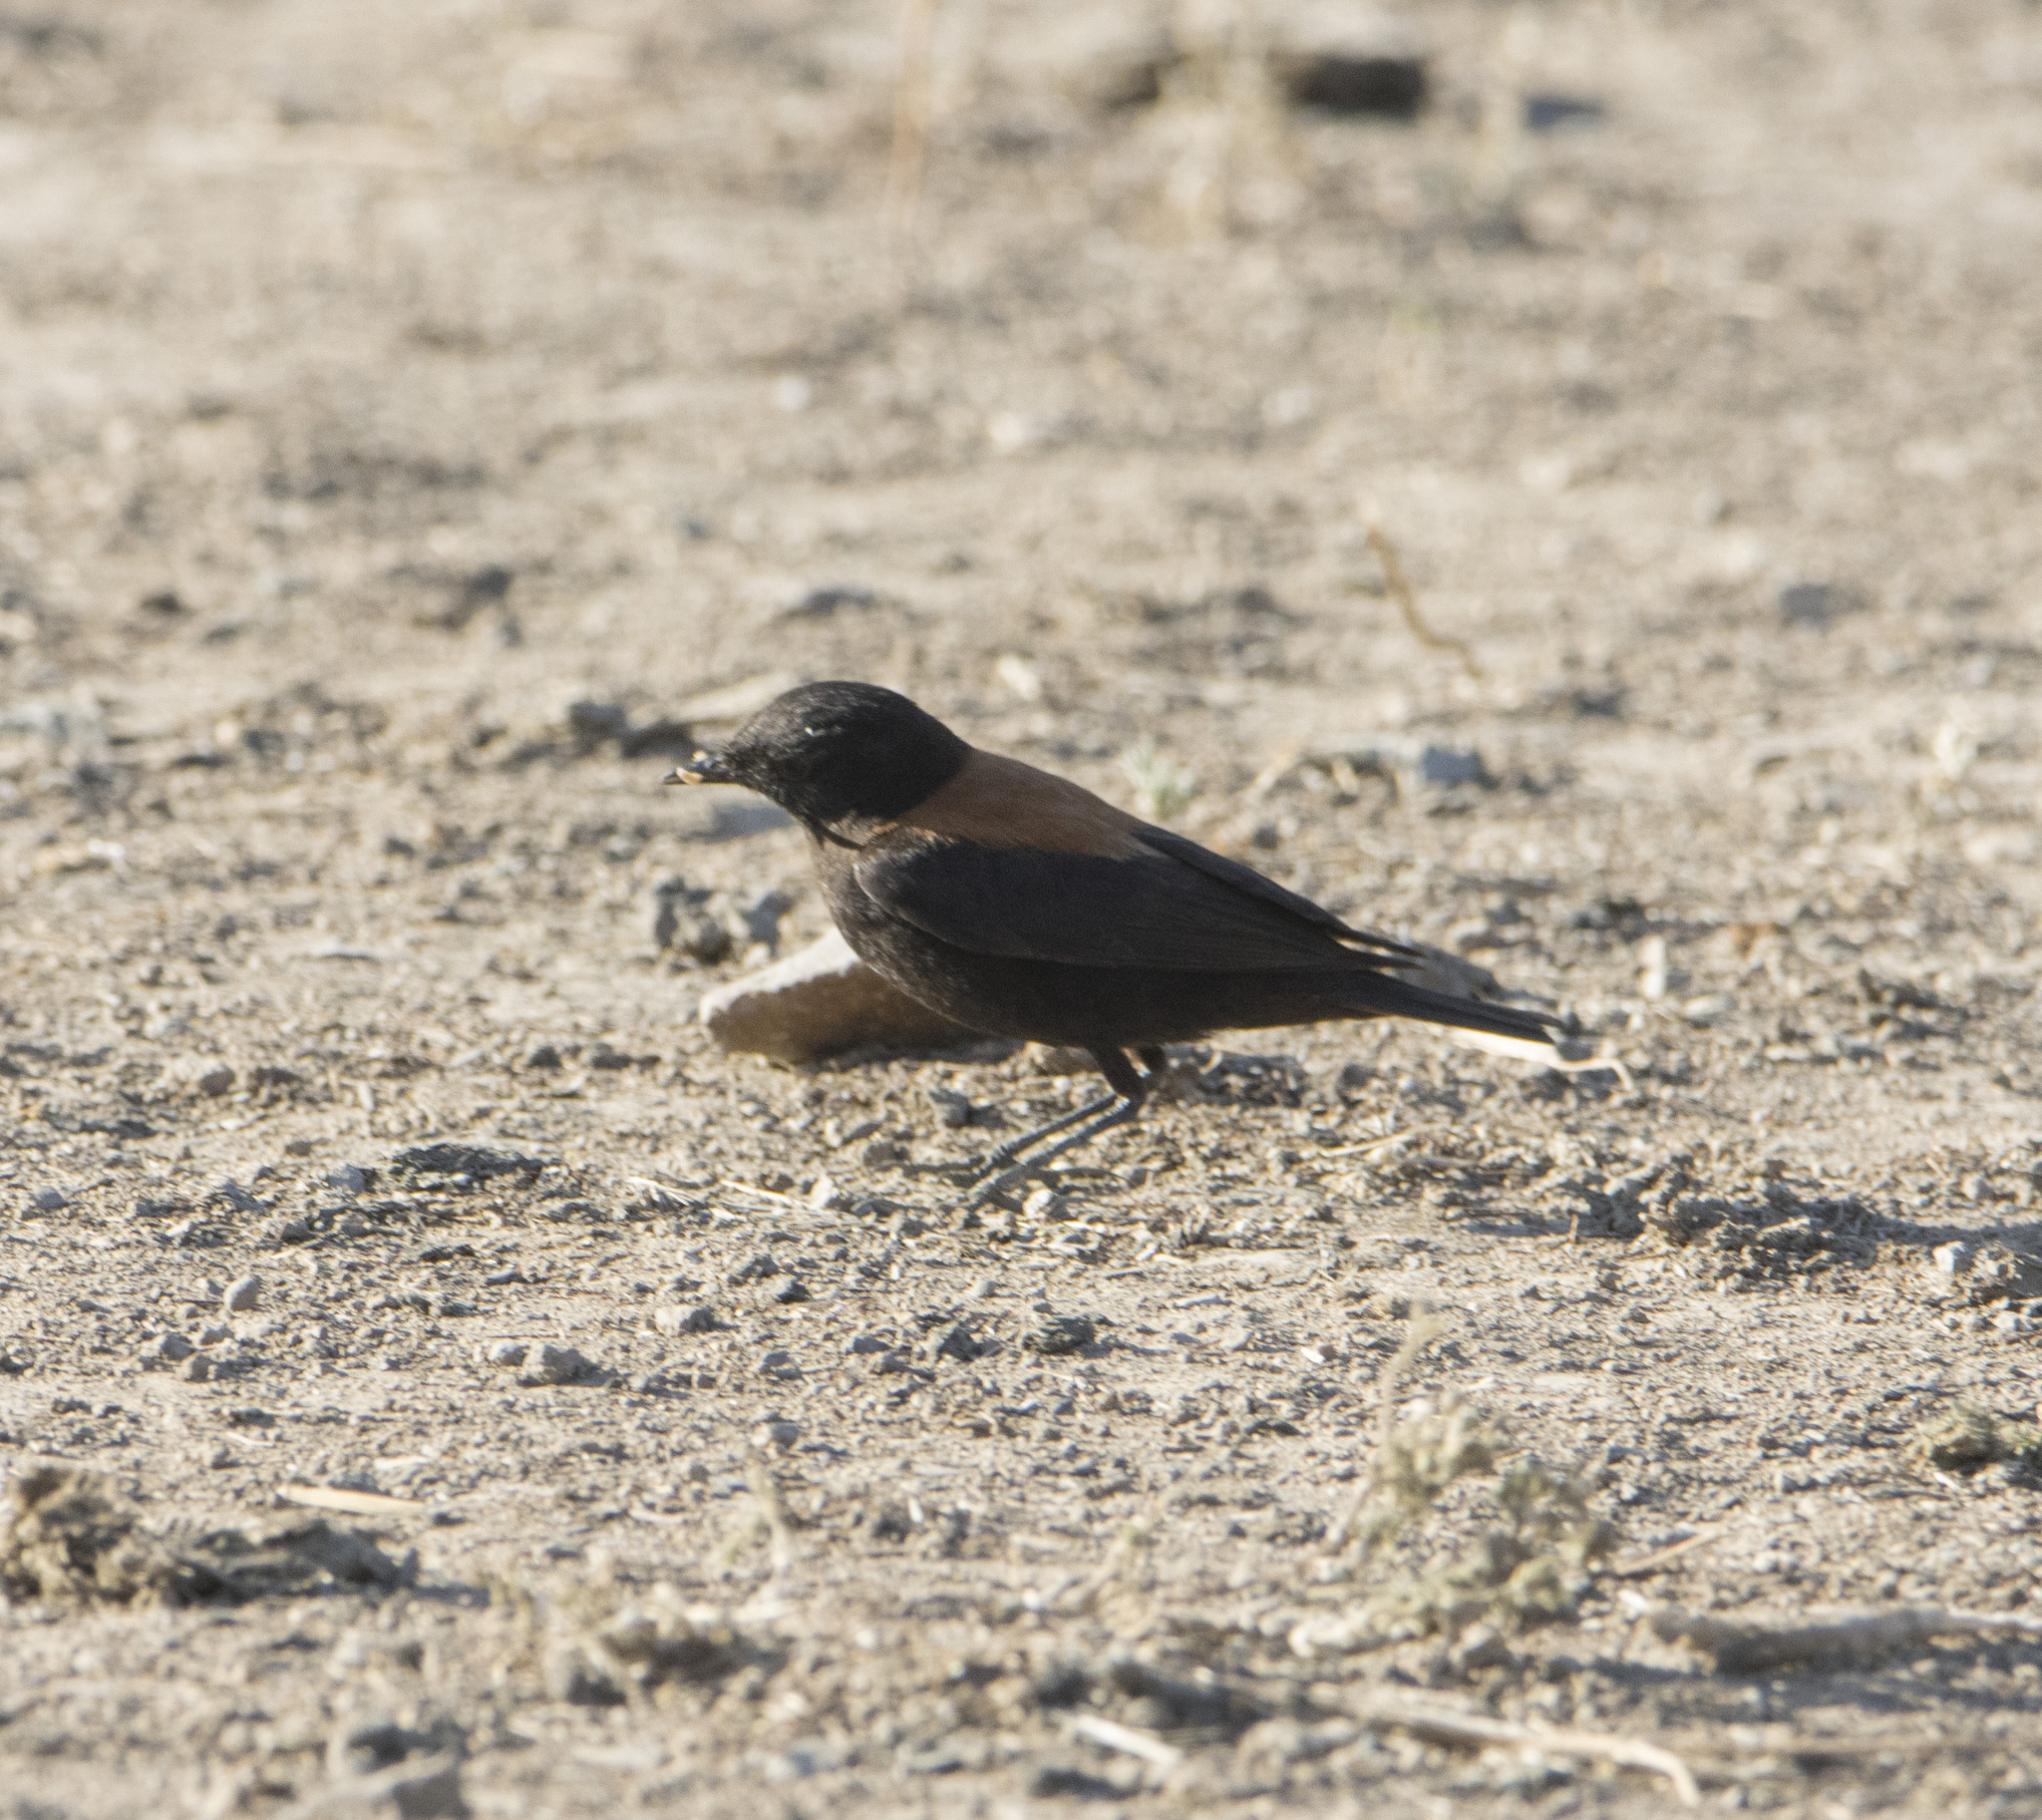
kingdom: Animalia
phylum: Chordata
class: Aves
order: Passeriformes
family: Tyrannidae
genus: Lessonia
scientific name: Lessonia rufa
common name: Austral negrito
